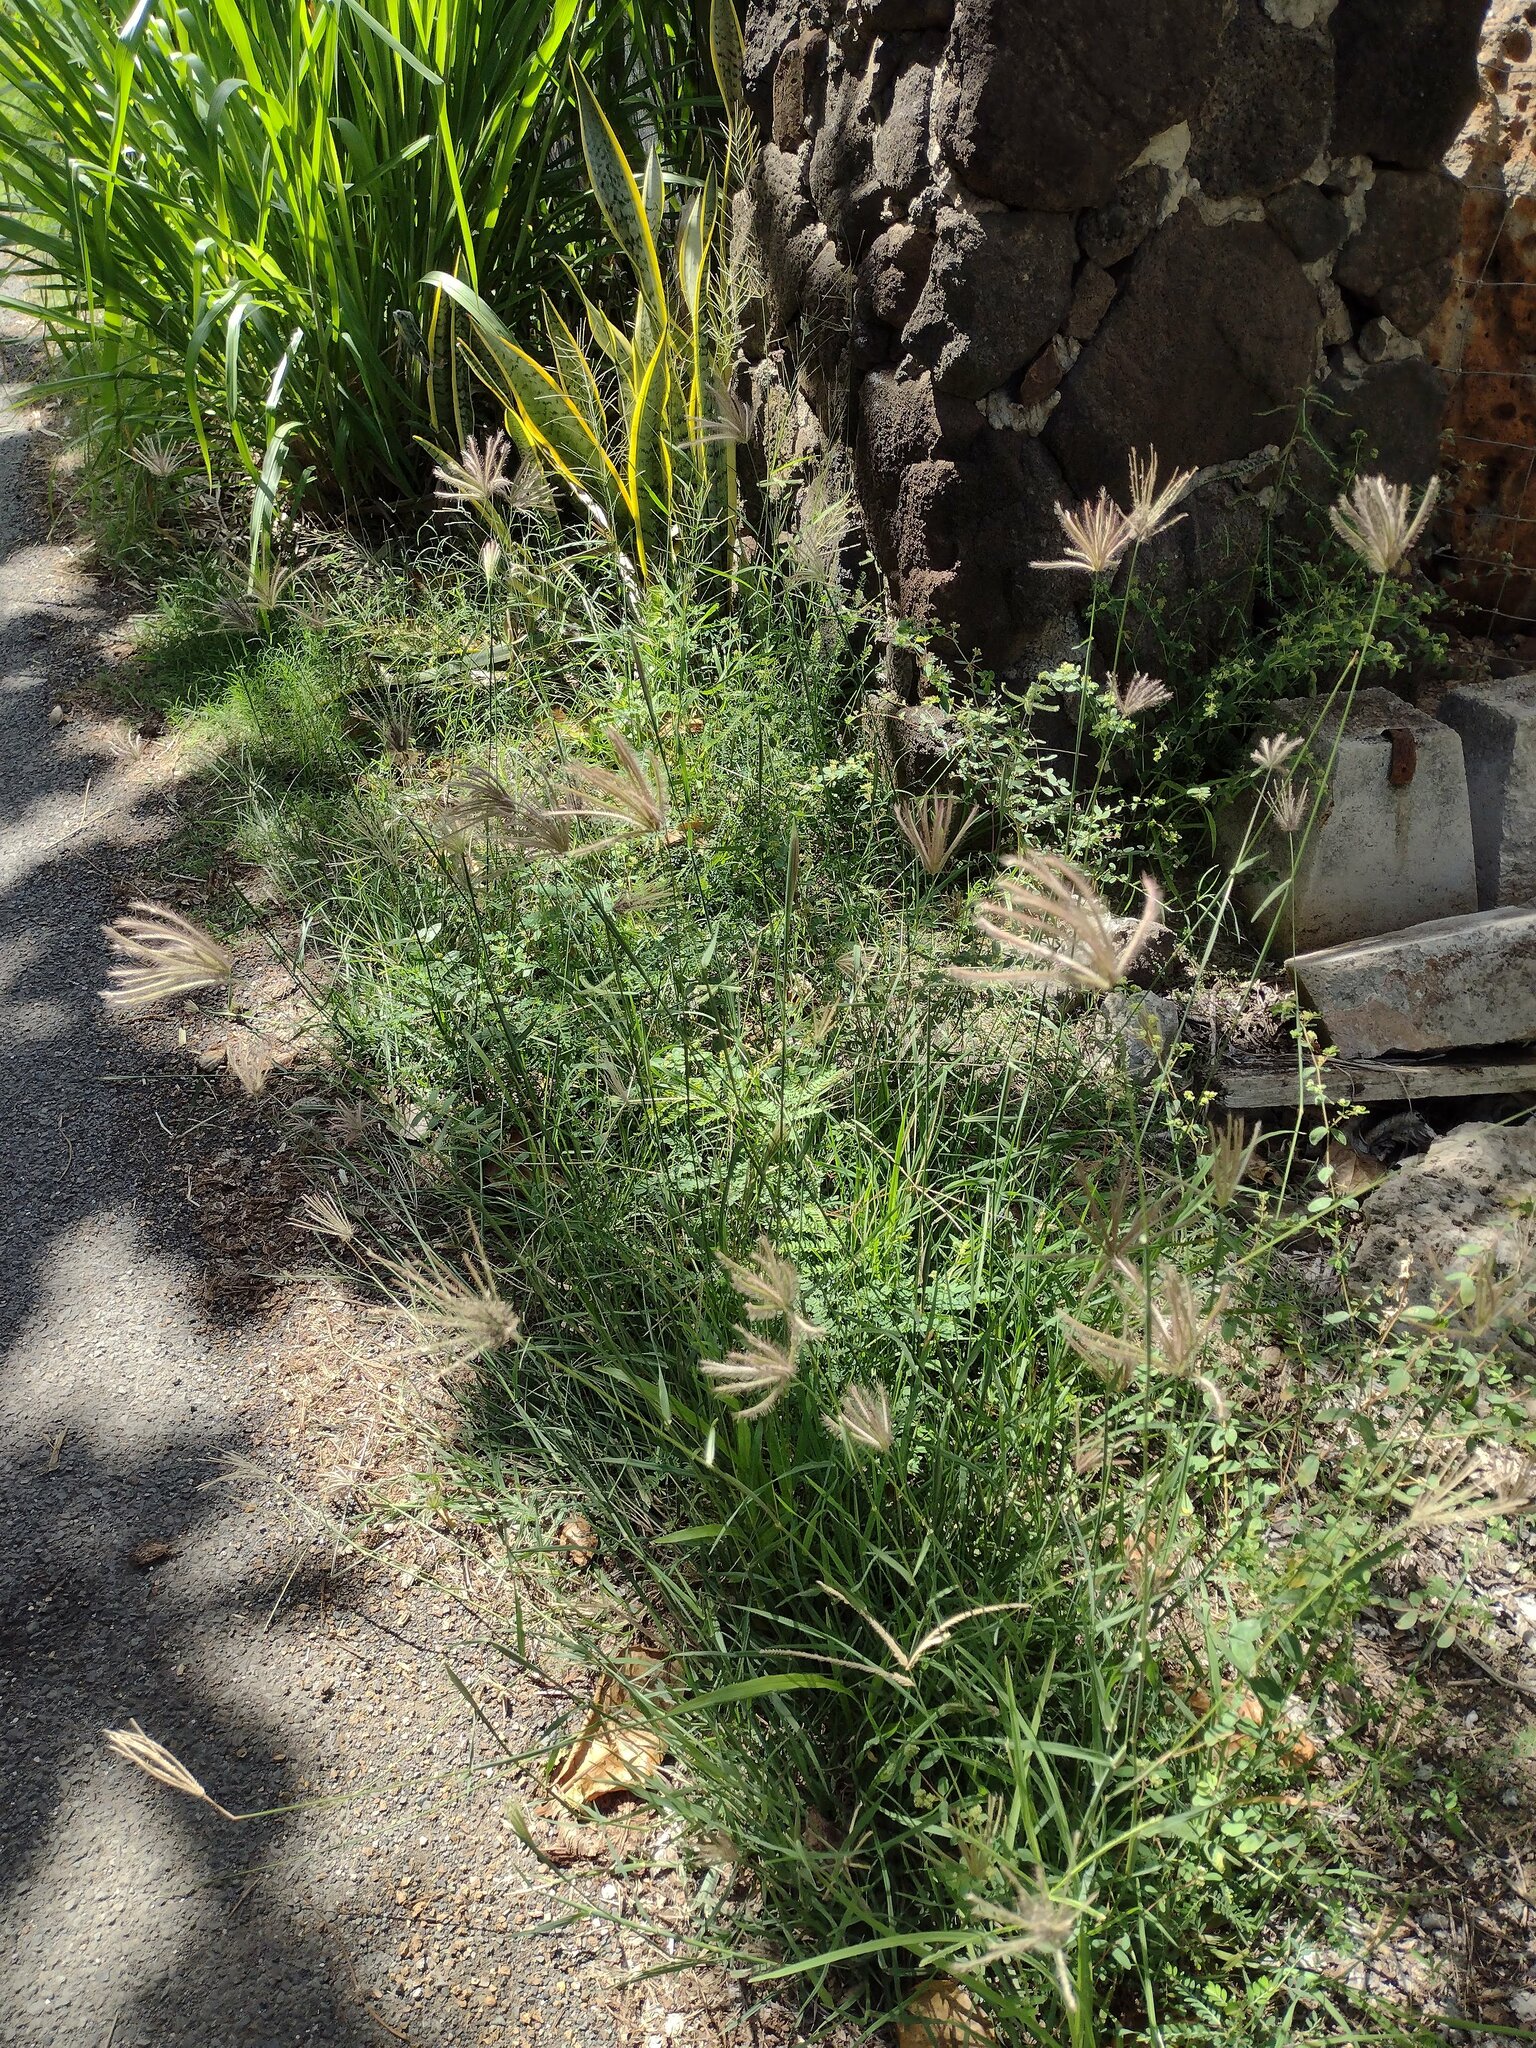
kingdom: Plantae
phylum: Tracheophyta
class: Liliopsida
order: Poales
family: Poaceae
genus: Chloris
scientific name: Chloris barbata
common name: Swollen fingergrass
